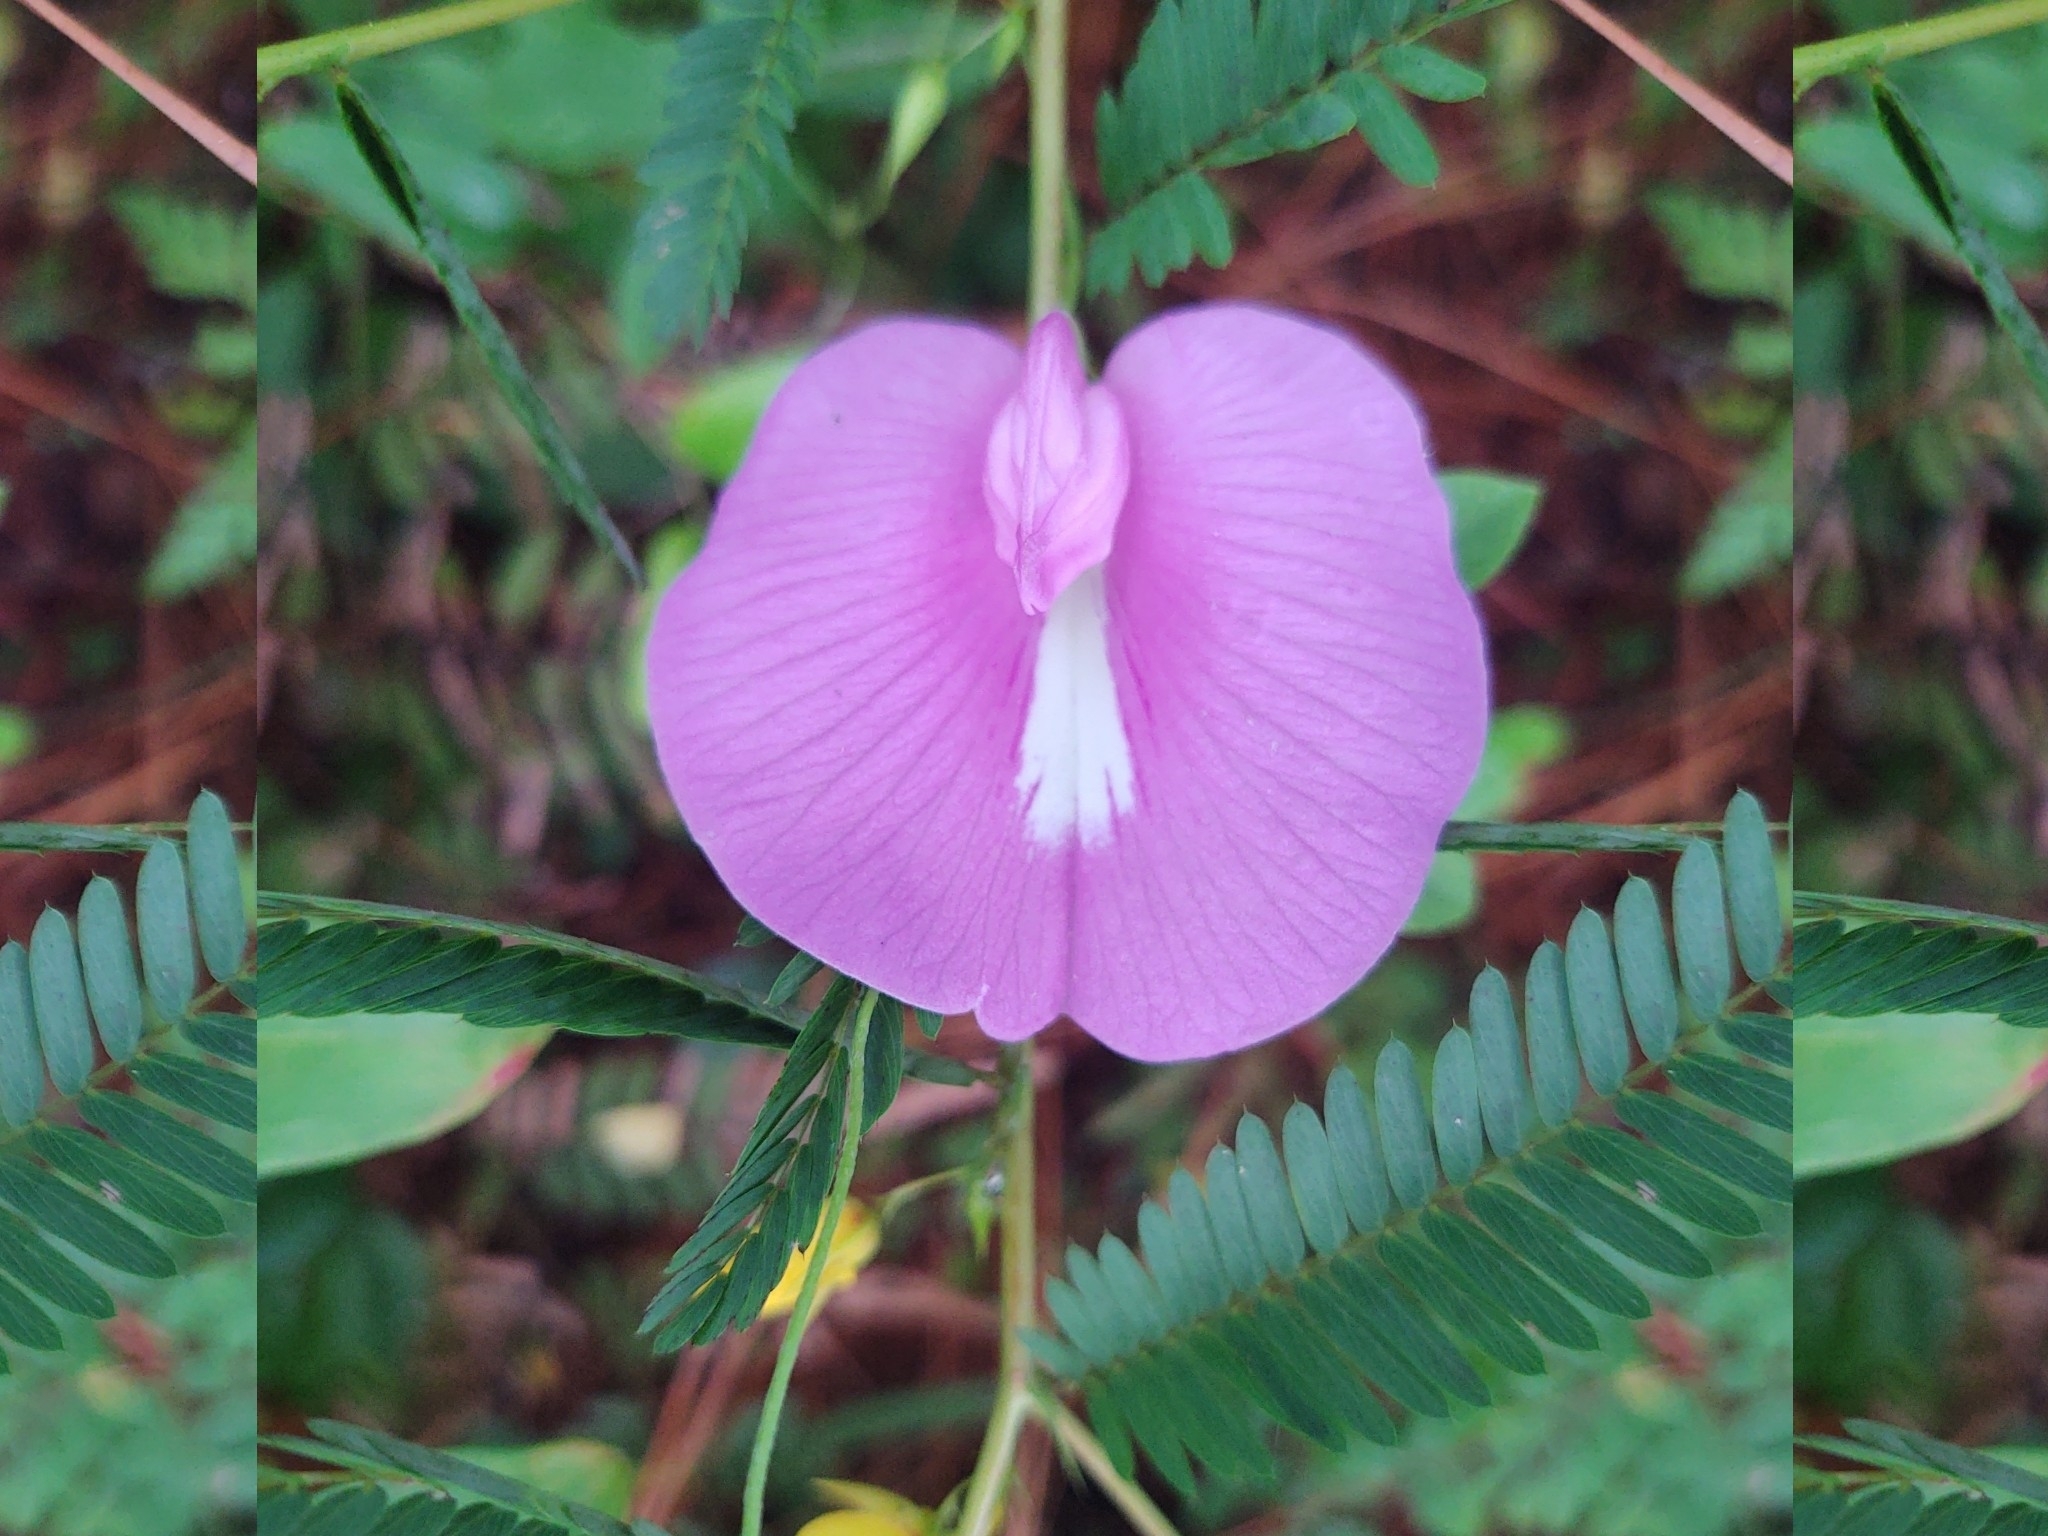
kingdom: Plantae
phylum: Tracheophyta
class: Magnoliopsida
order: Fabales
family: Fabaceae
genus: Centrosema
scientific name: Centrosema virginianum
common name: Butterfly-pea
